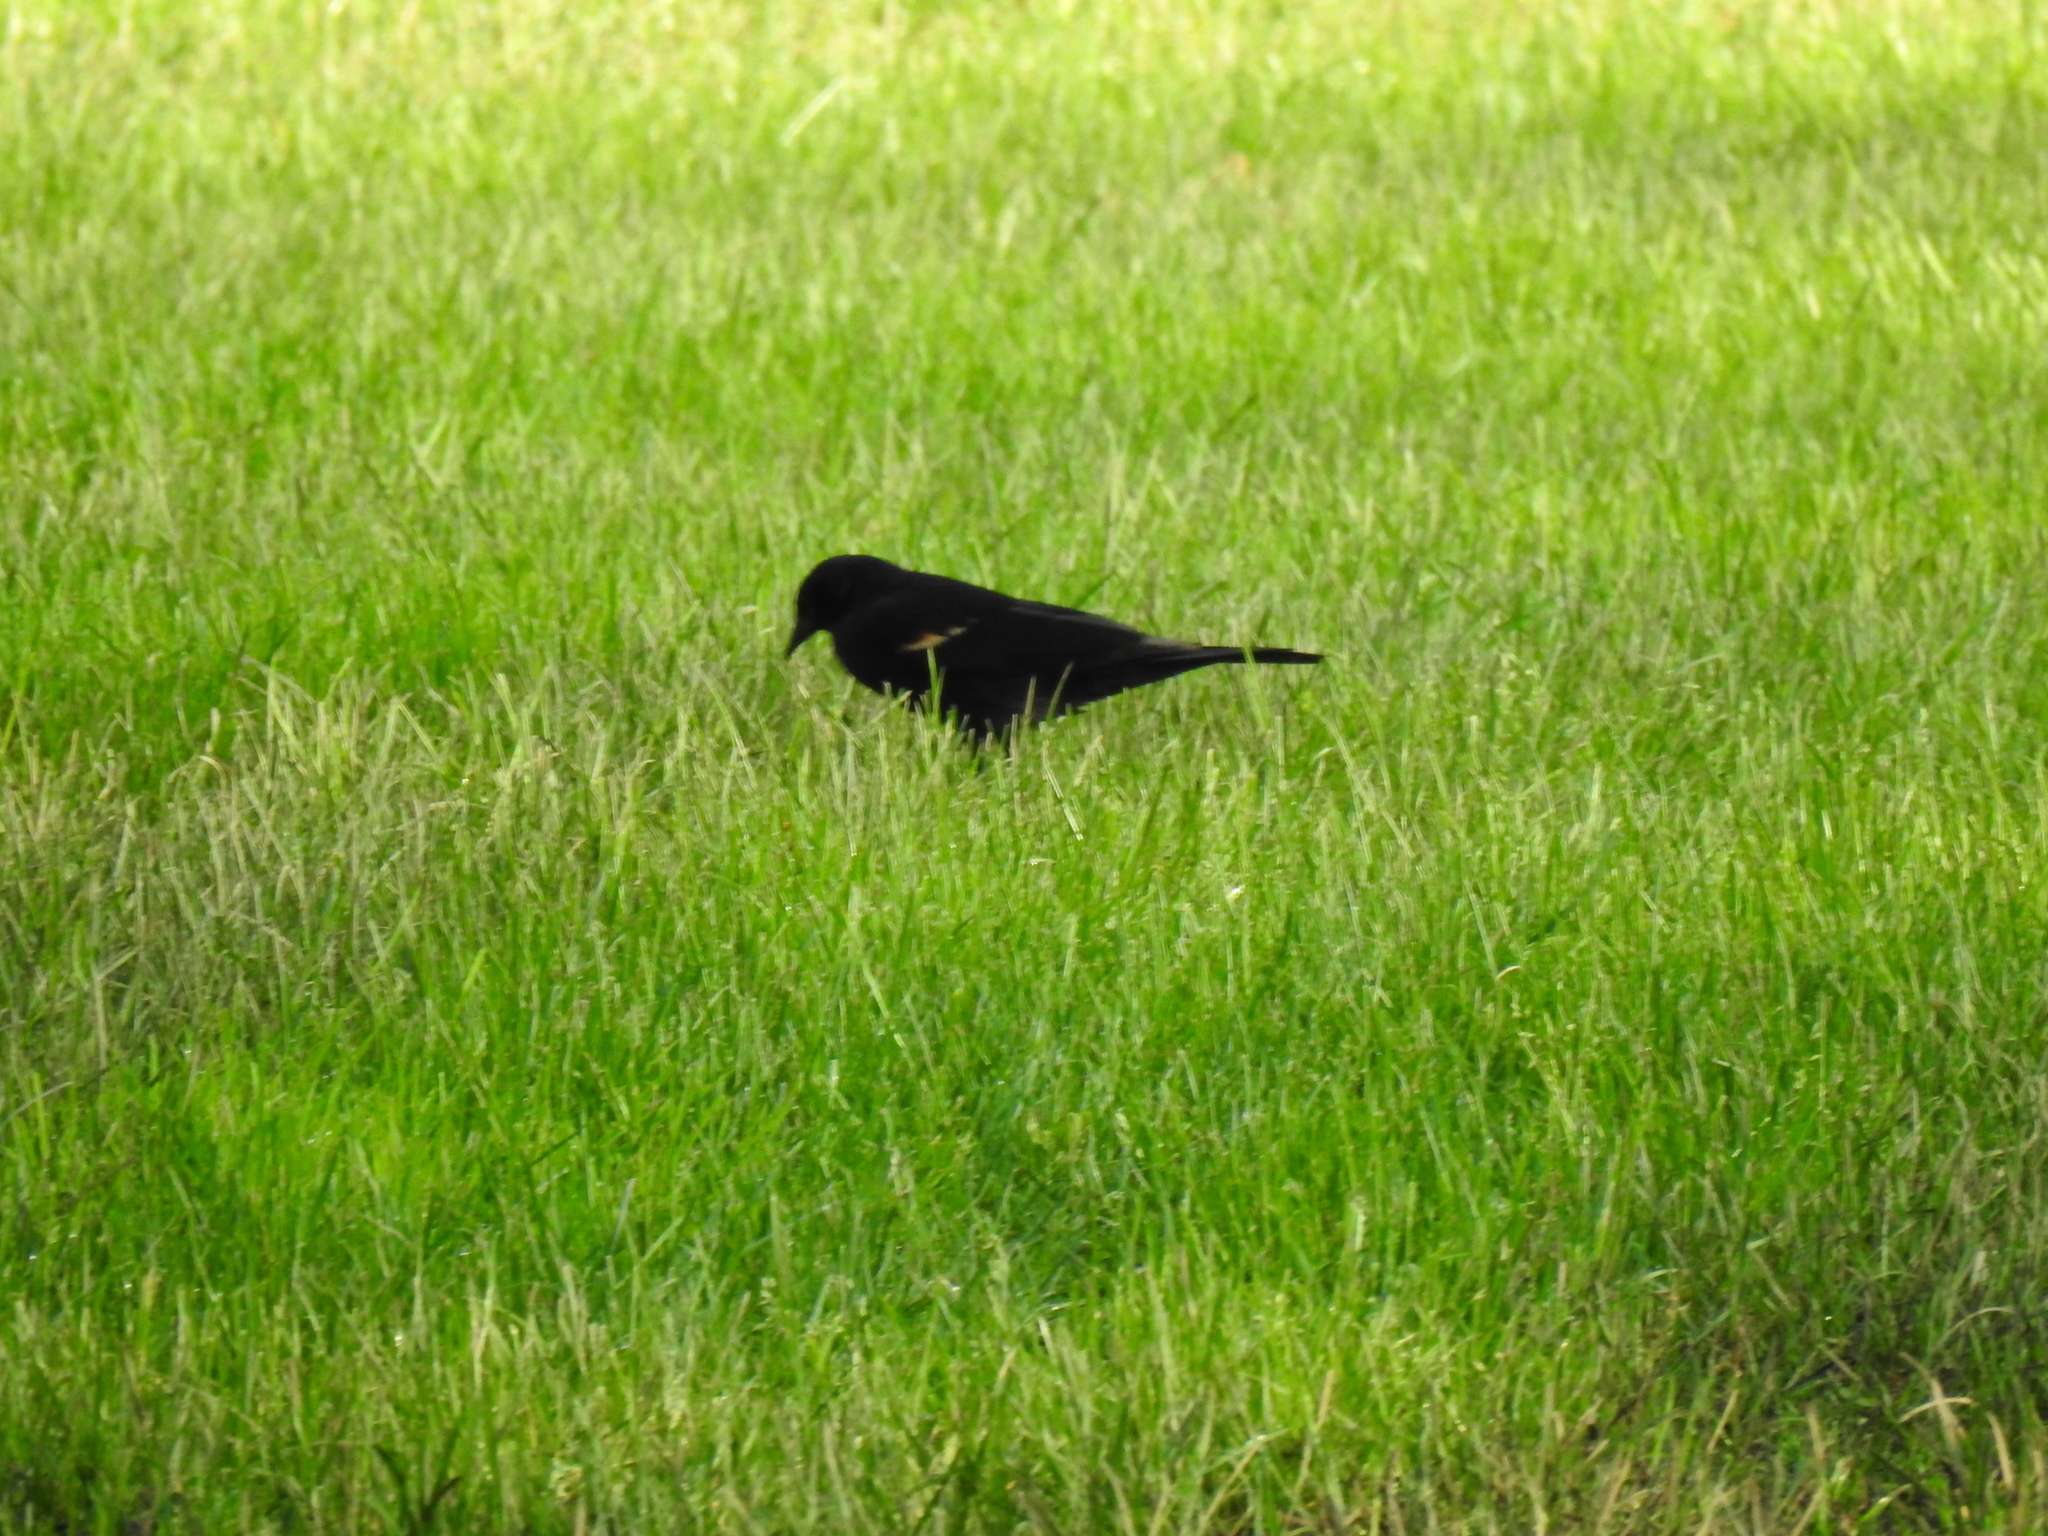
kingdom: Animalia
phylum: Chordata
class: Aves
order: Passeriformes
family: Icteridae
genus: Agelaius
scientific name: Agelaius phoeniceus
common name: Red-winged blackbird
